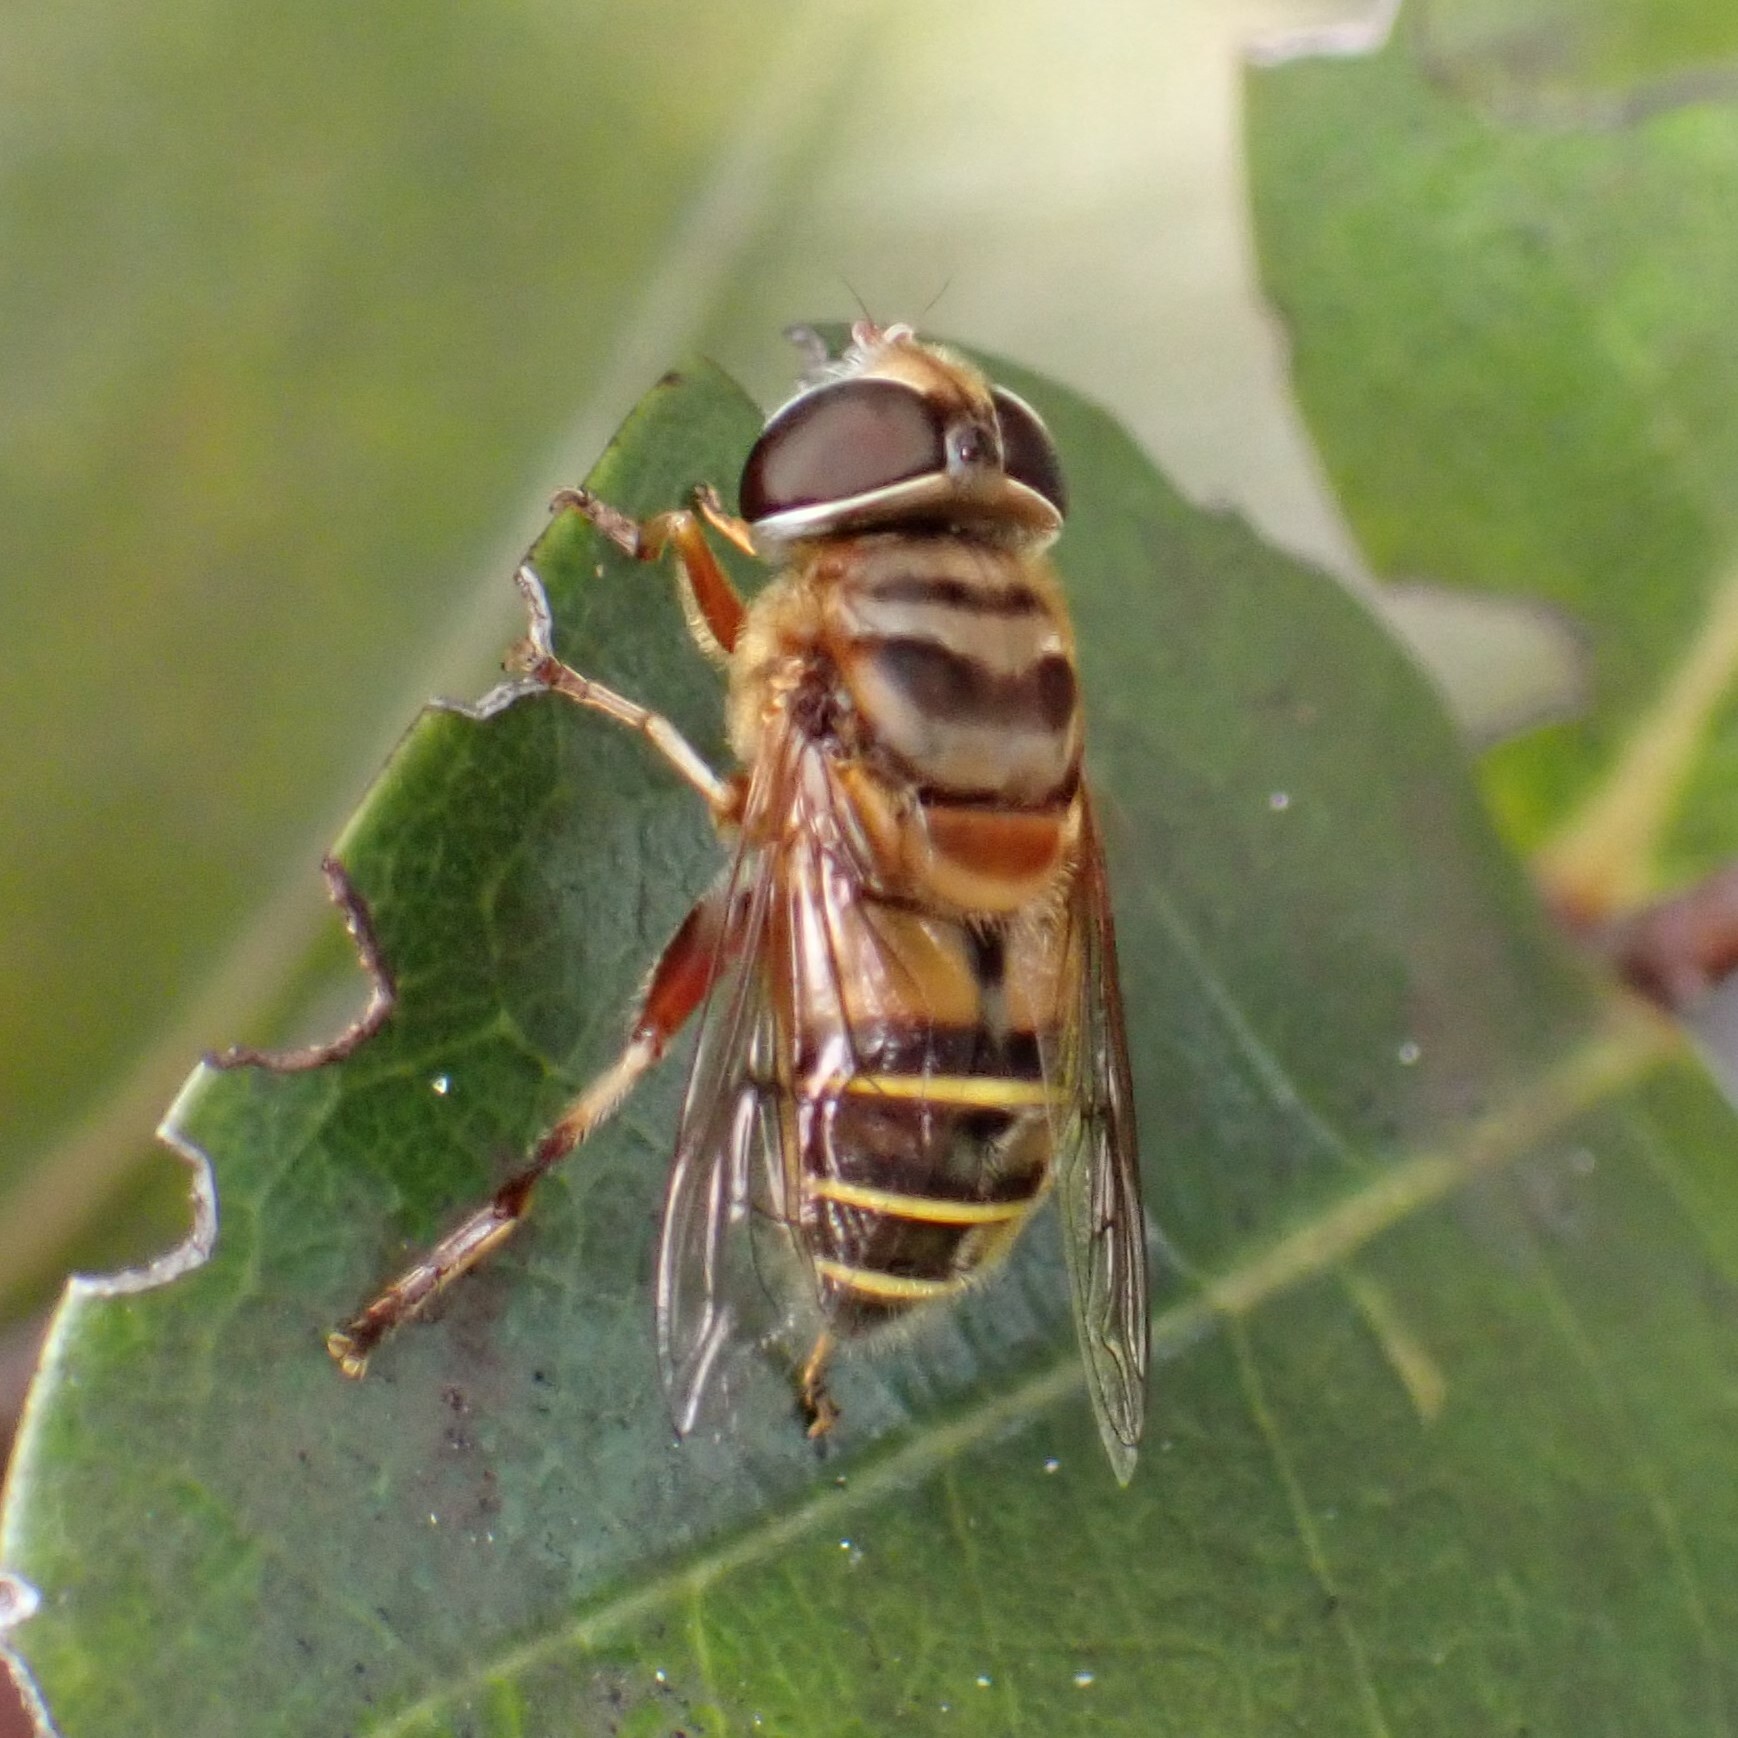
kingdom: Animalia
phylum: Arthropoda
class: Insecta
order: Diptera
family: Syrphidae
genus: Palpada
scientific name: Palpada vinetorum
